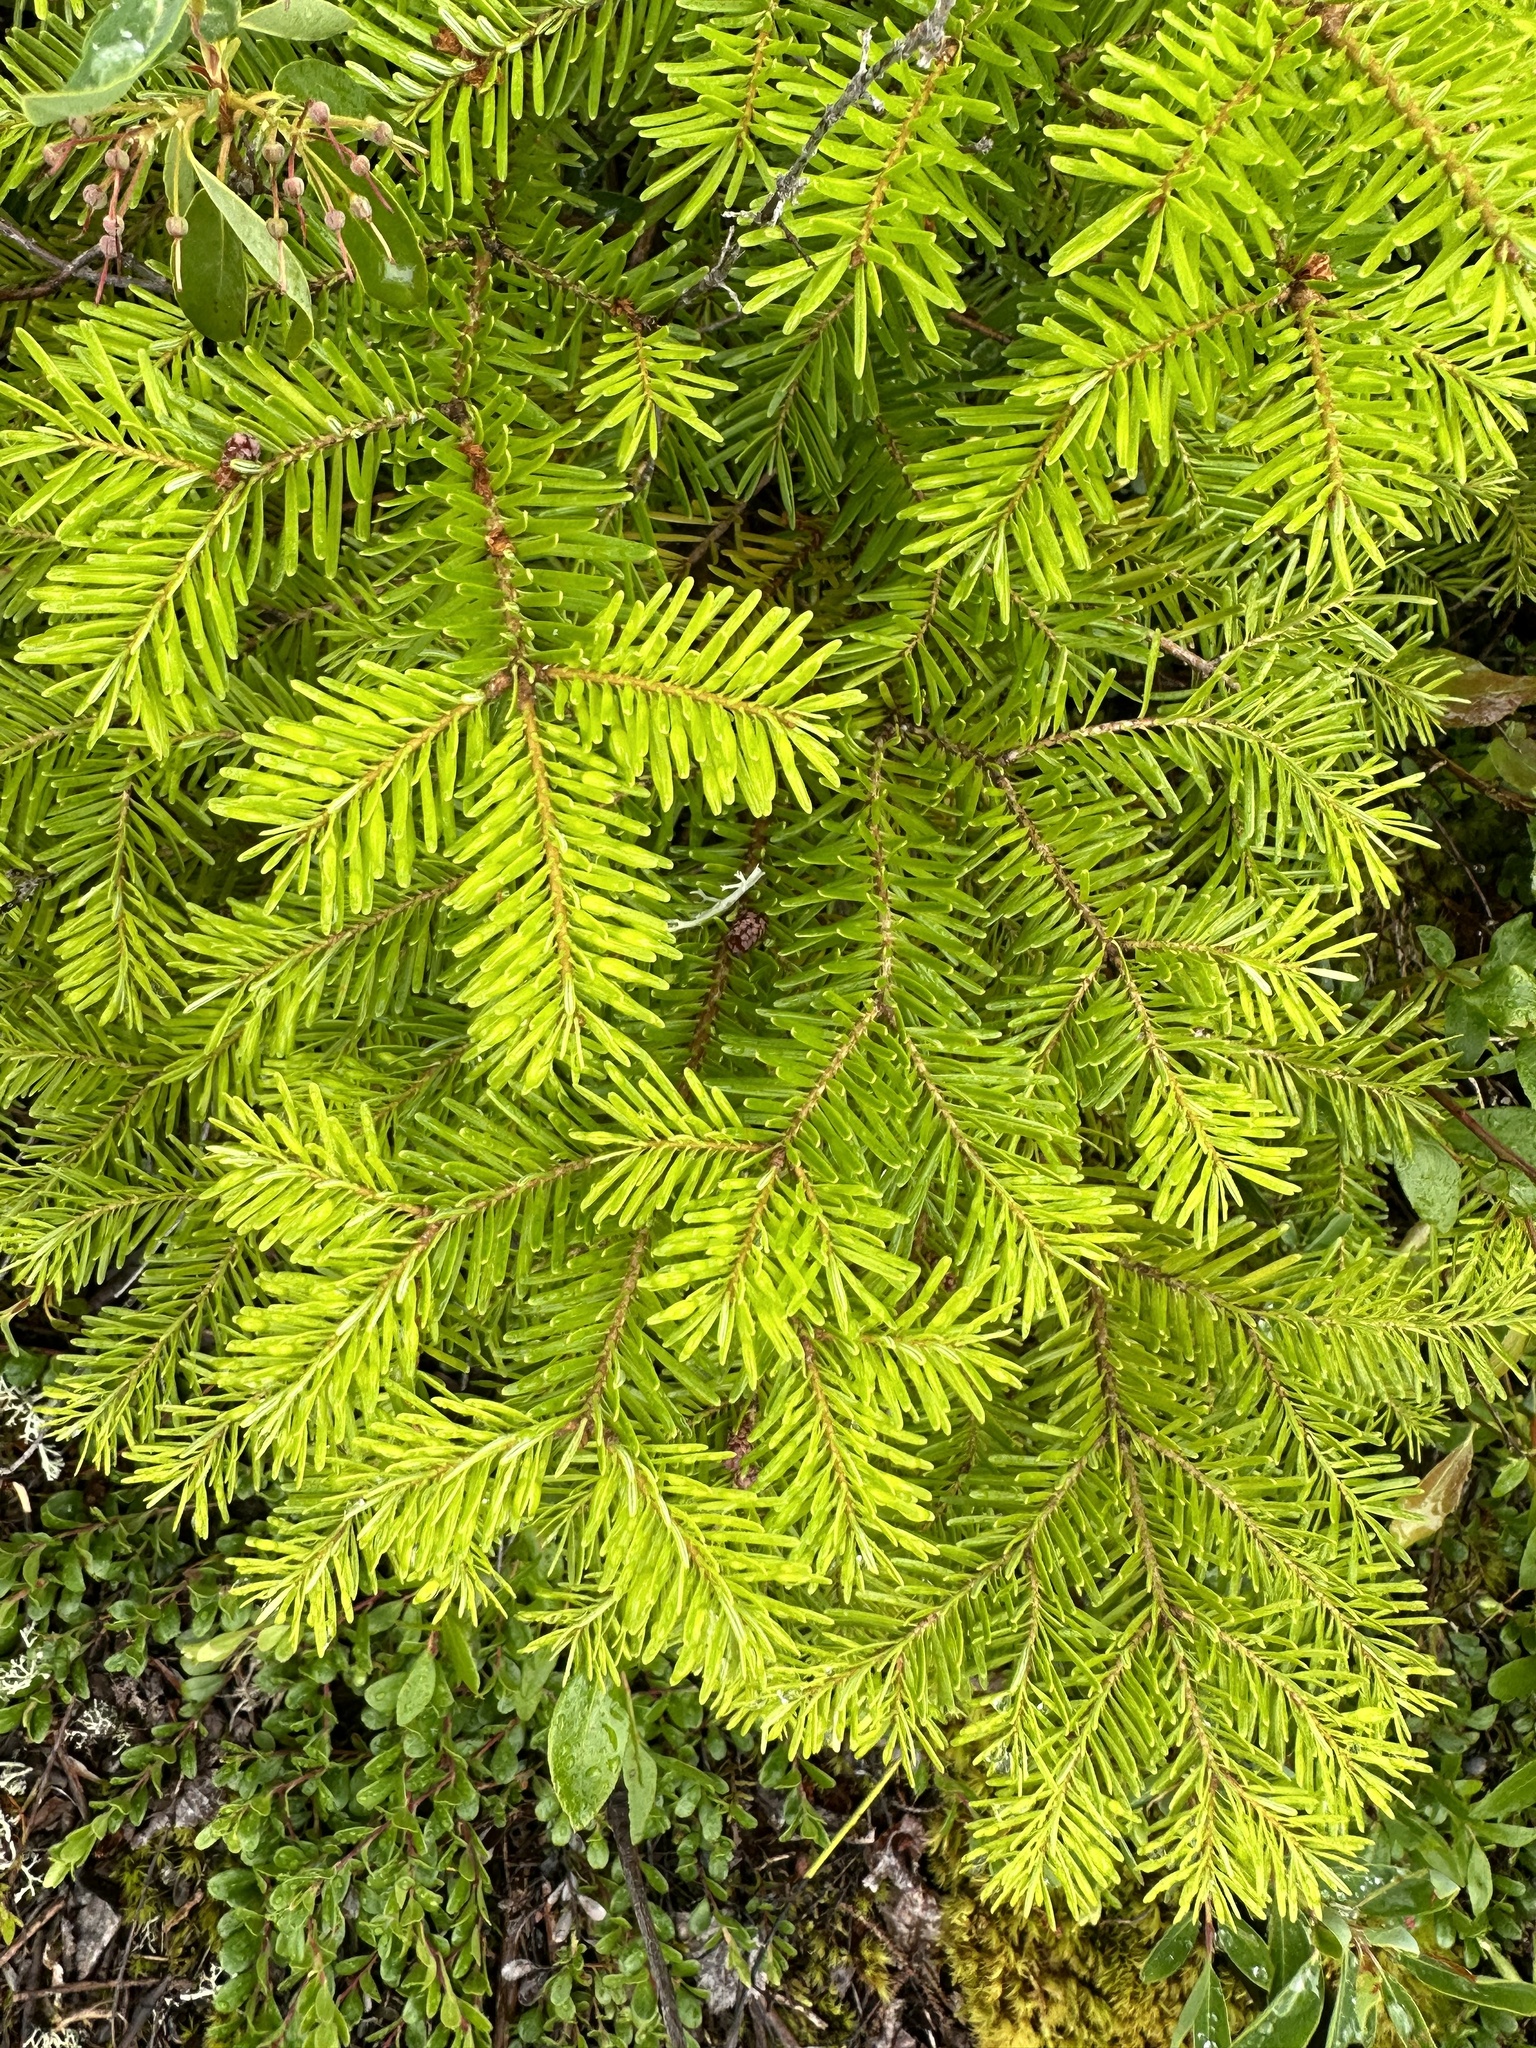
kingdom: Plantae
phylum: Tracheophyta
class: Pinopsida
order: Pinales
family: Pinaceae
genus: Abies
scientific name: Abies balsamea
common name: Balsam fir
